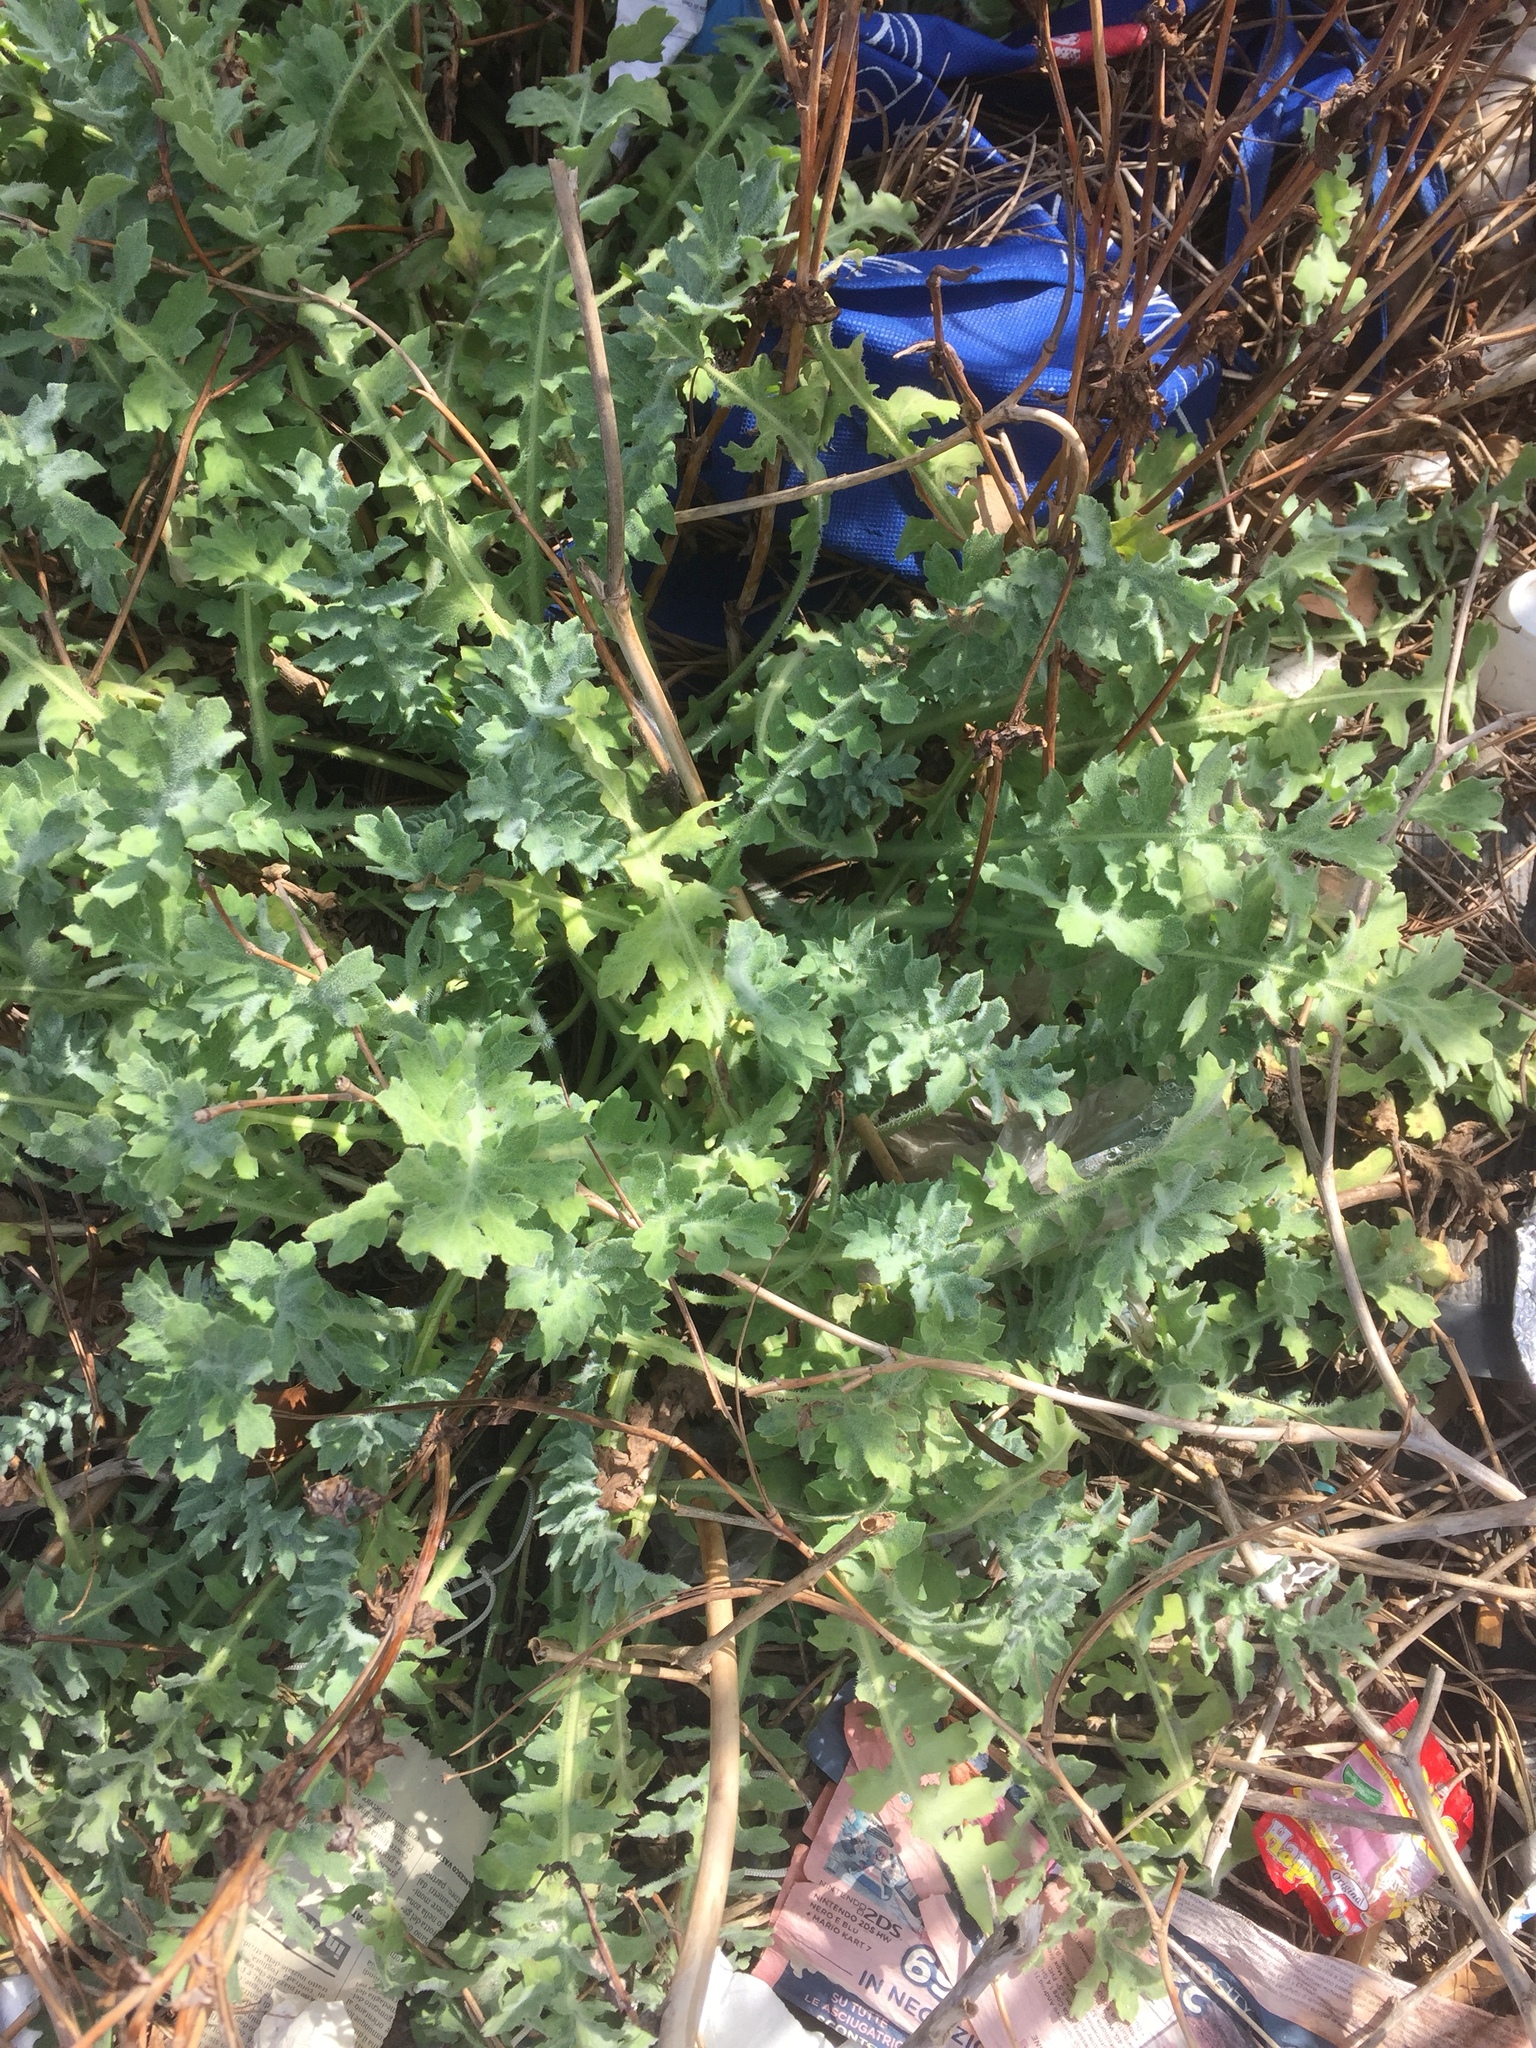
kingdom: Plantae
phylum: Tracheophyta
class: Magnoliopsida
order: Ranunculales
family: Papaveraceae
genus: Glaucium
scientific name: Glaucium flavum
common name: Yellow horned-poppy
